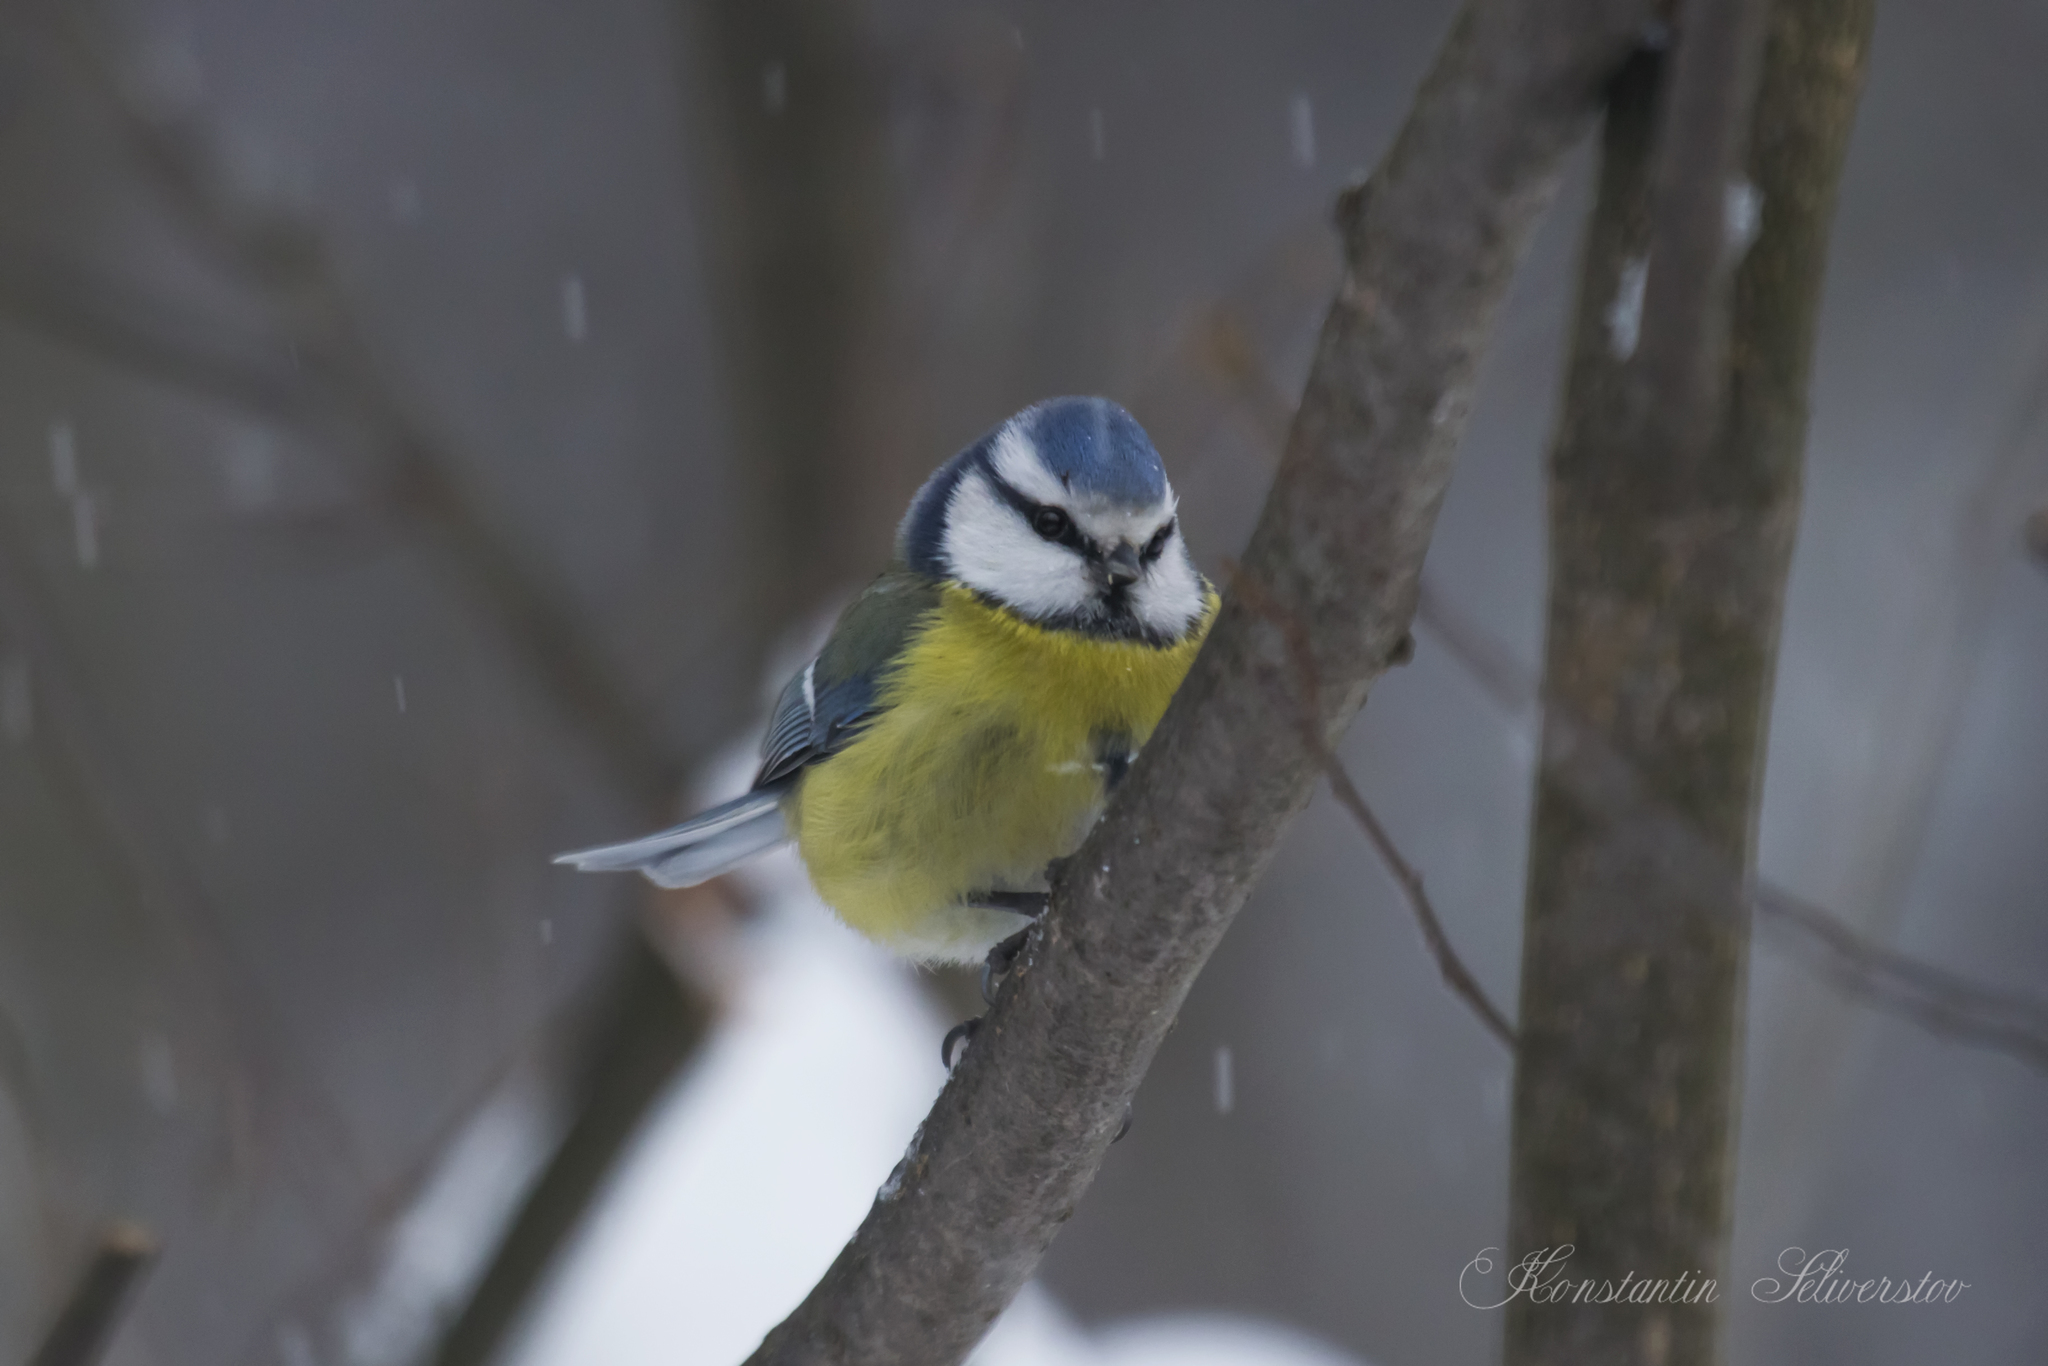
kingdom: Animalia
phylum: Chordata
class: Aves
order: Passeriformes
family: Paridae
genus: Cyanistes
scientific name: Cyanistes caeruleus
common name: Eurasian blue tit
